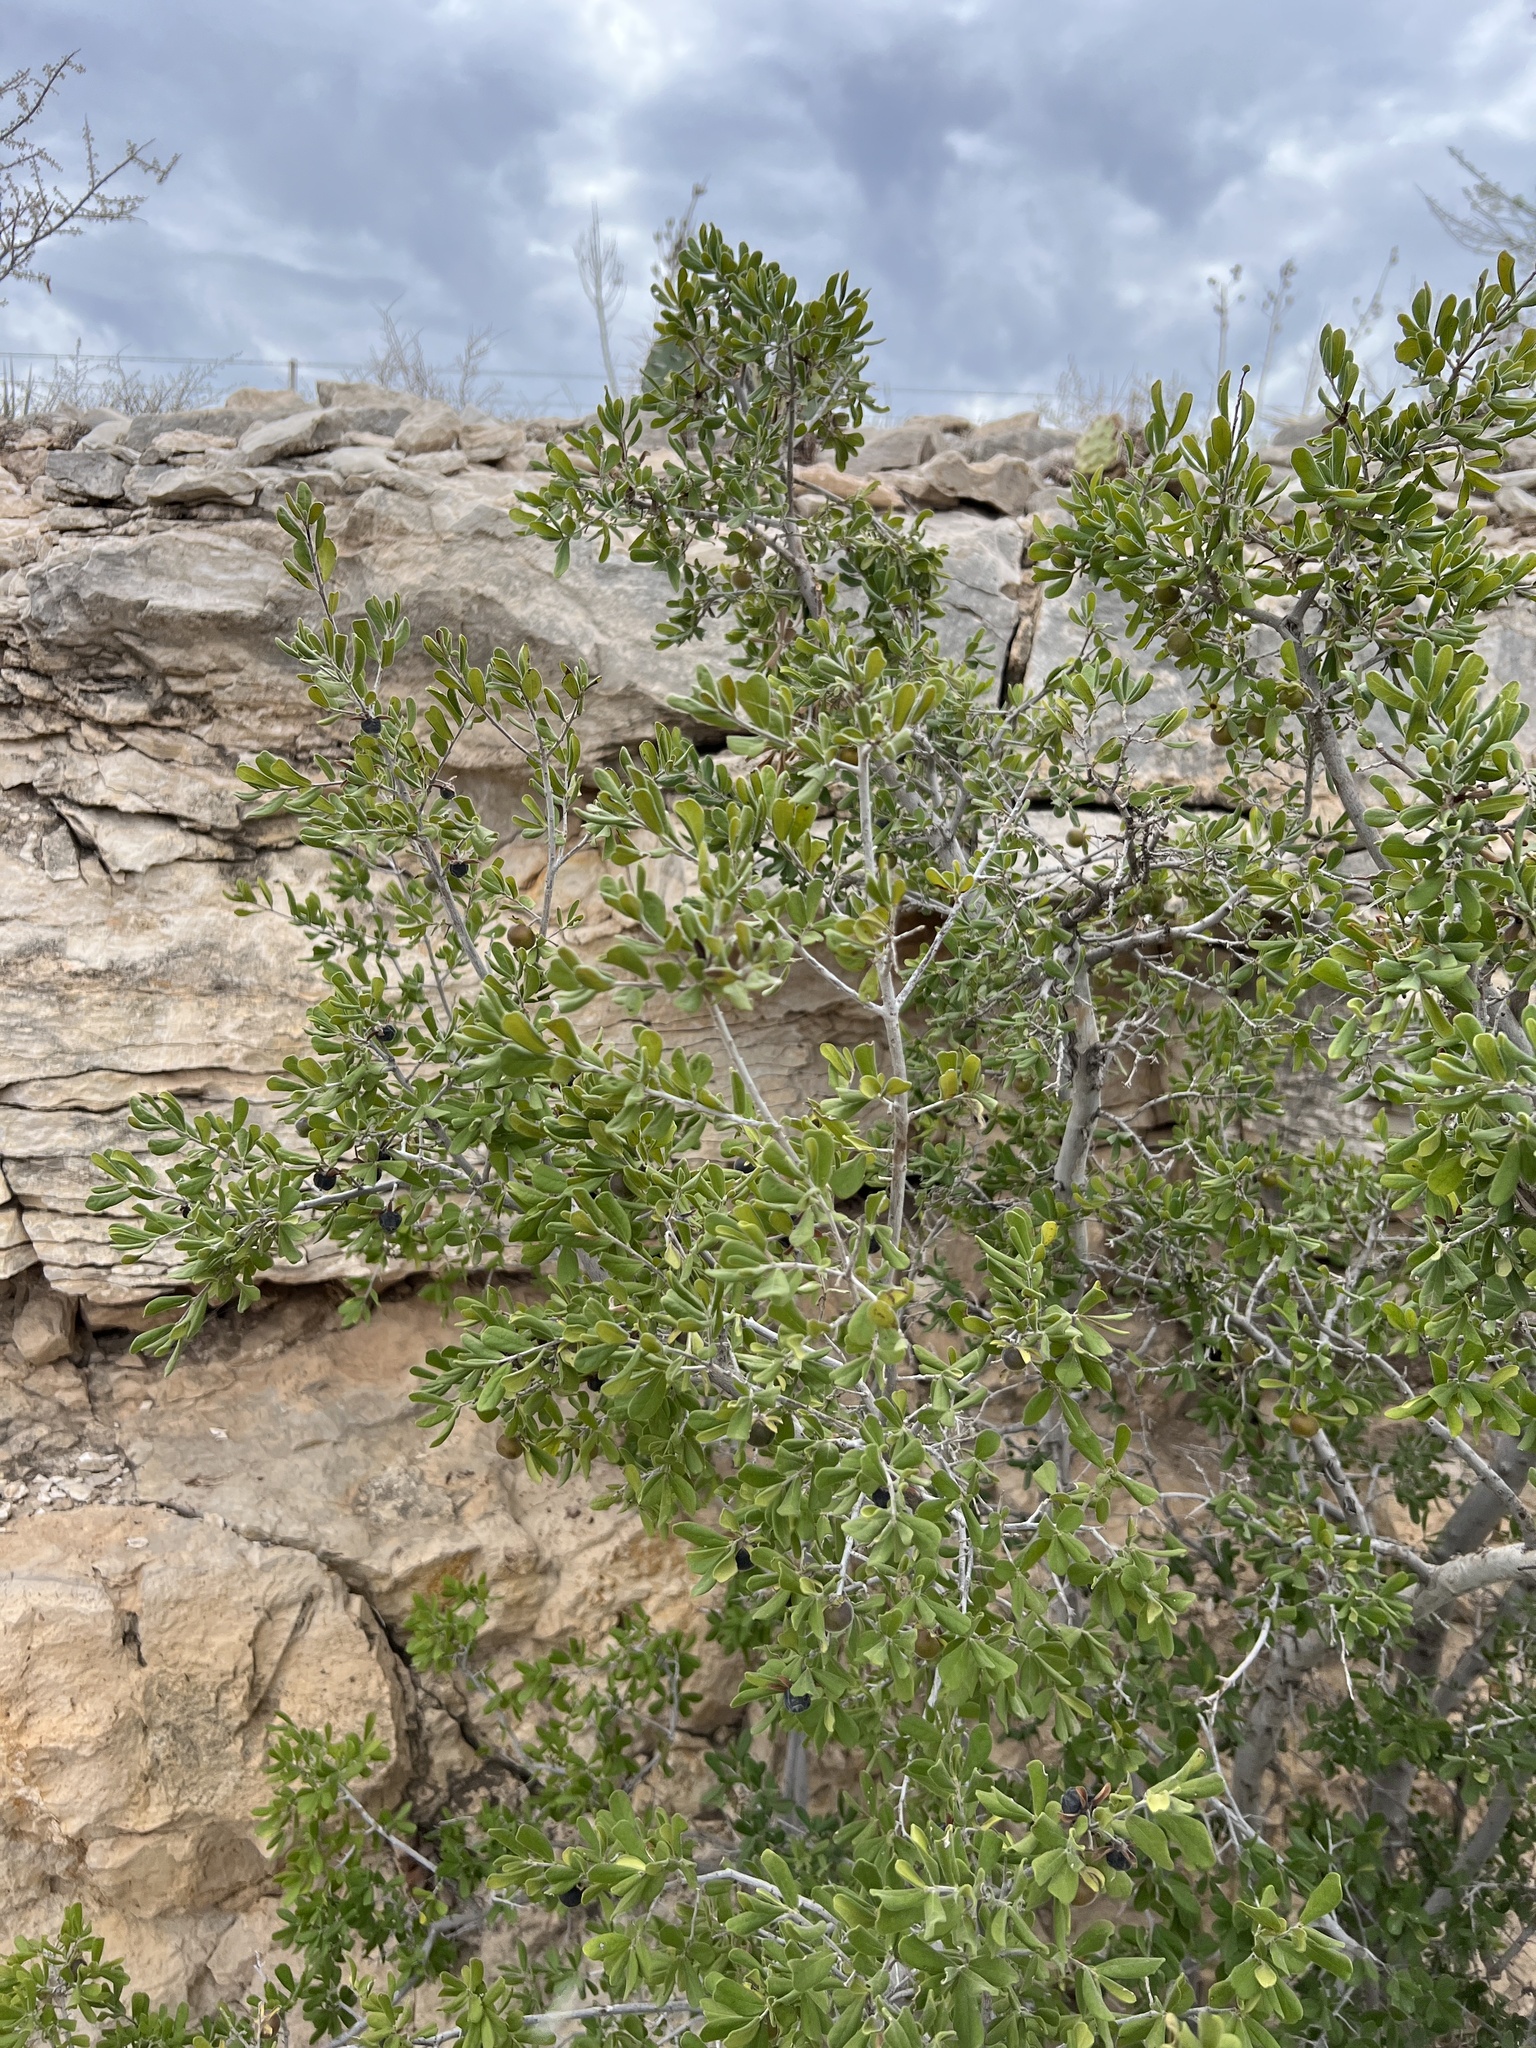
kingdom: Plantae
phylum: Tracheophyta
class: Magnoliopsida
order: Ericales
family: Ebenaceae
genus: Diospyros
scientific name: Diospyros texana
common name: Texas persimmon
